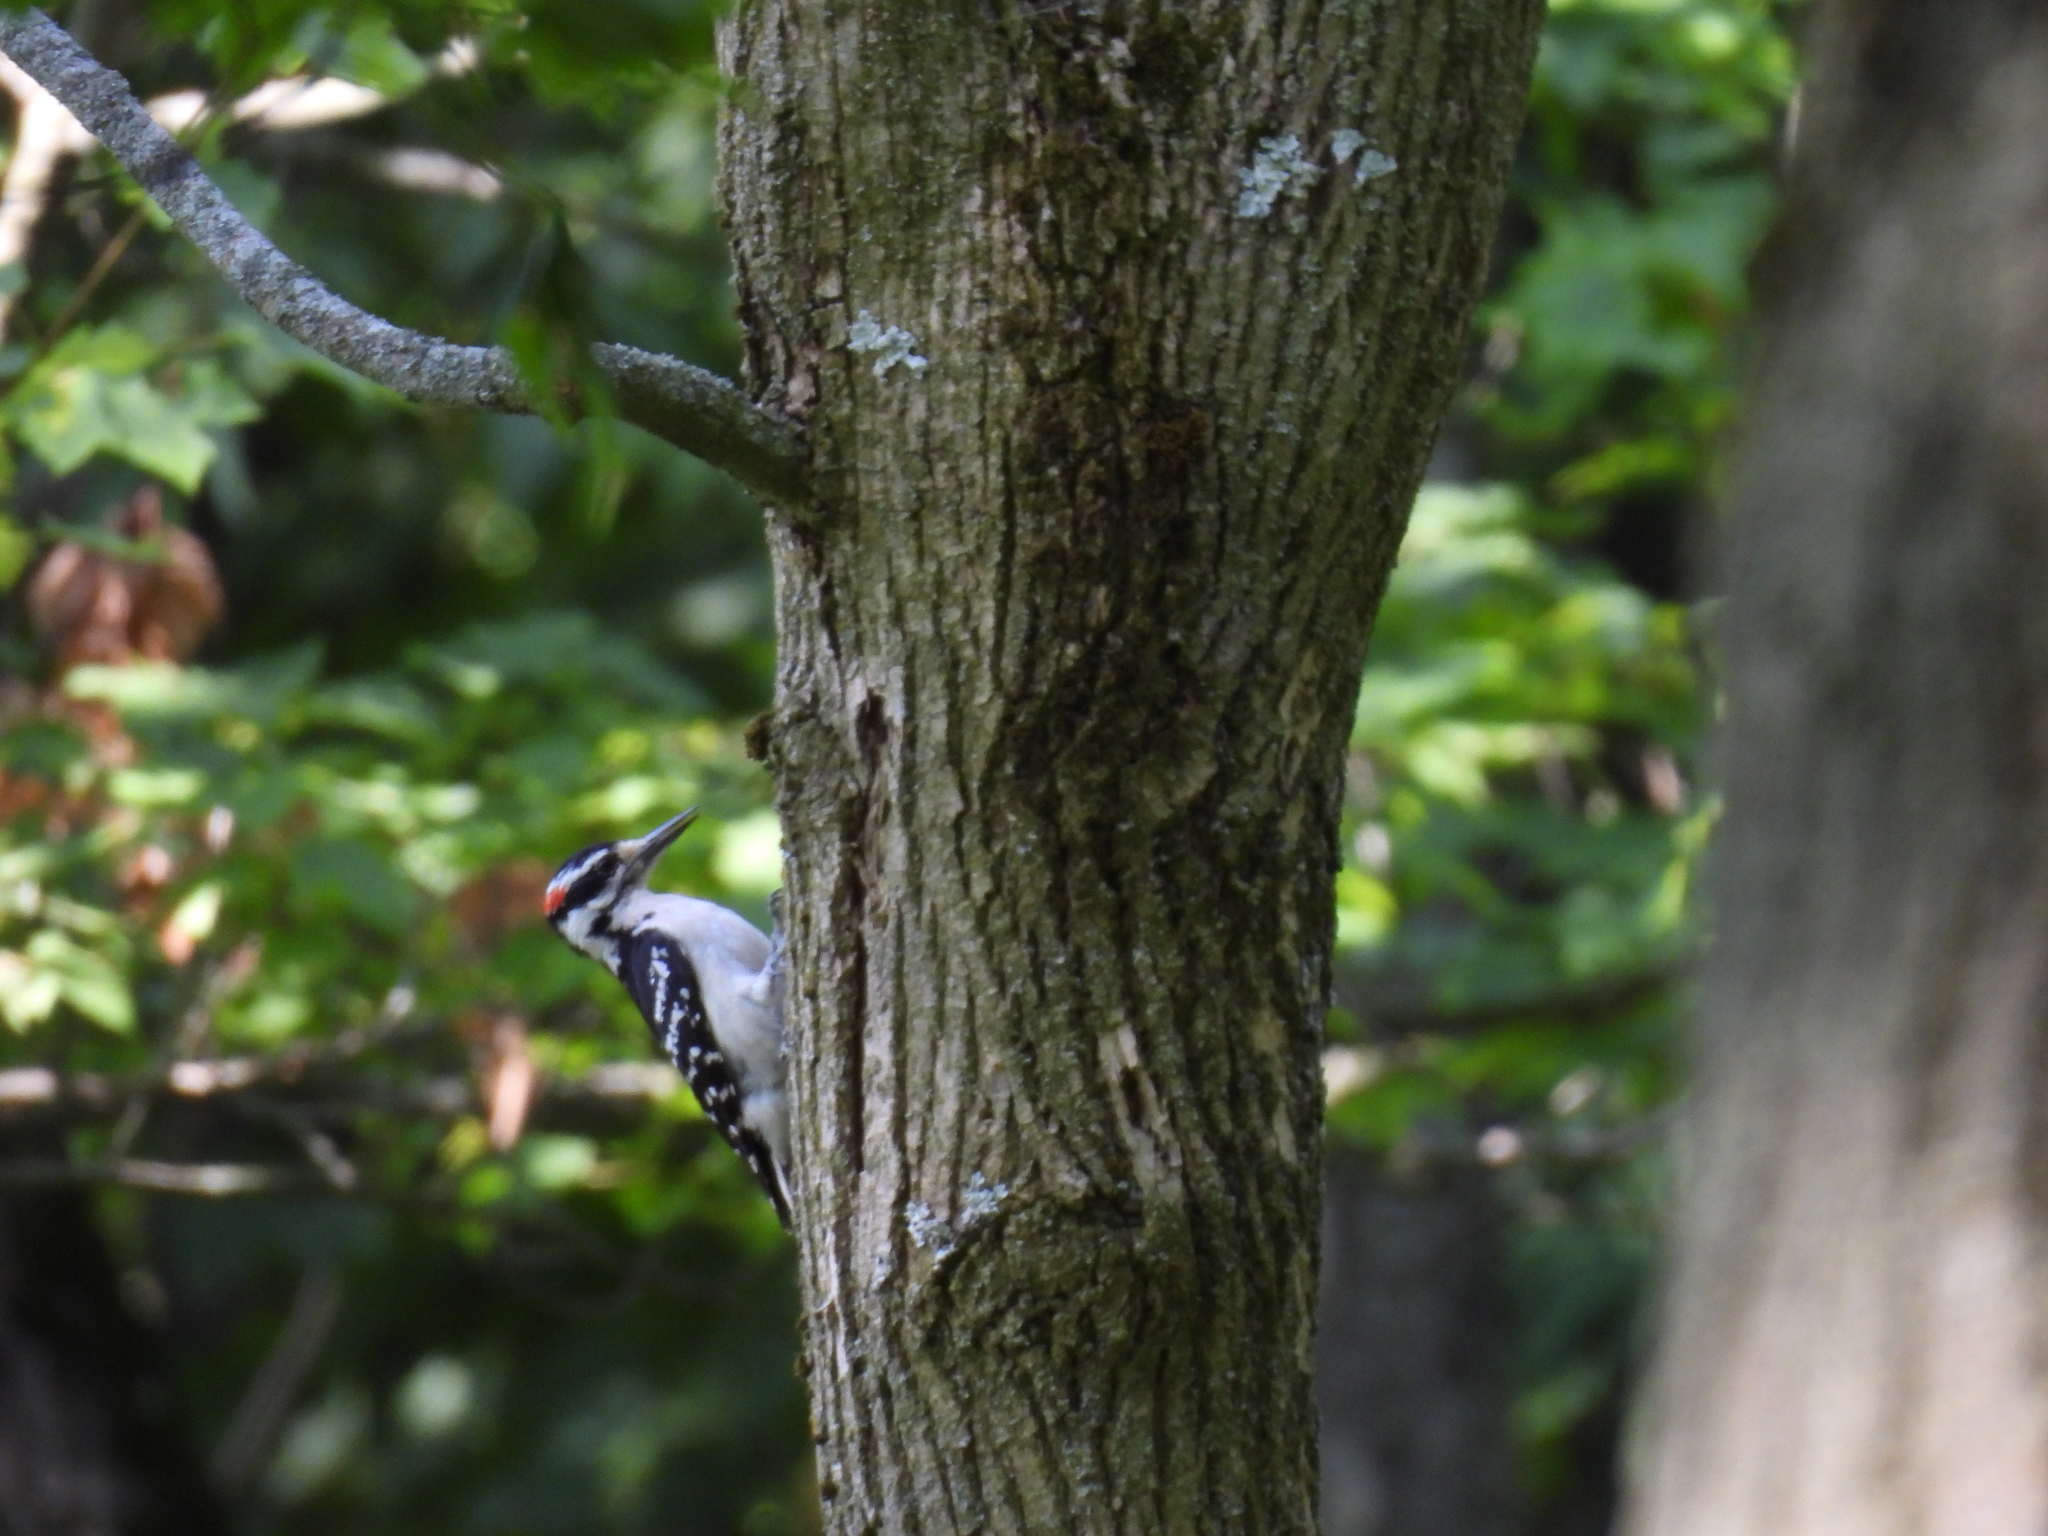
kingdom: Animalia
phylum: Chordata
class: Aves
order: Piciformes
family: Picidae
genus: Leuconotopicus
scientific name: Leuconotopicus villosus
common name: Hairy woodpecker
